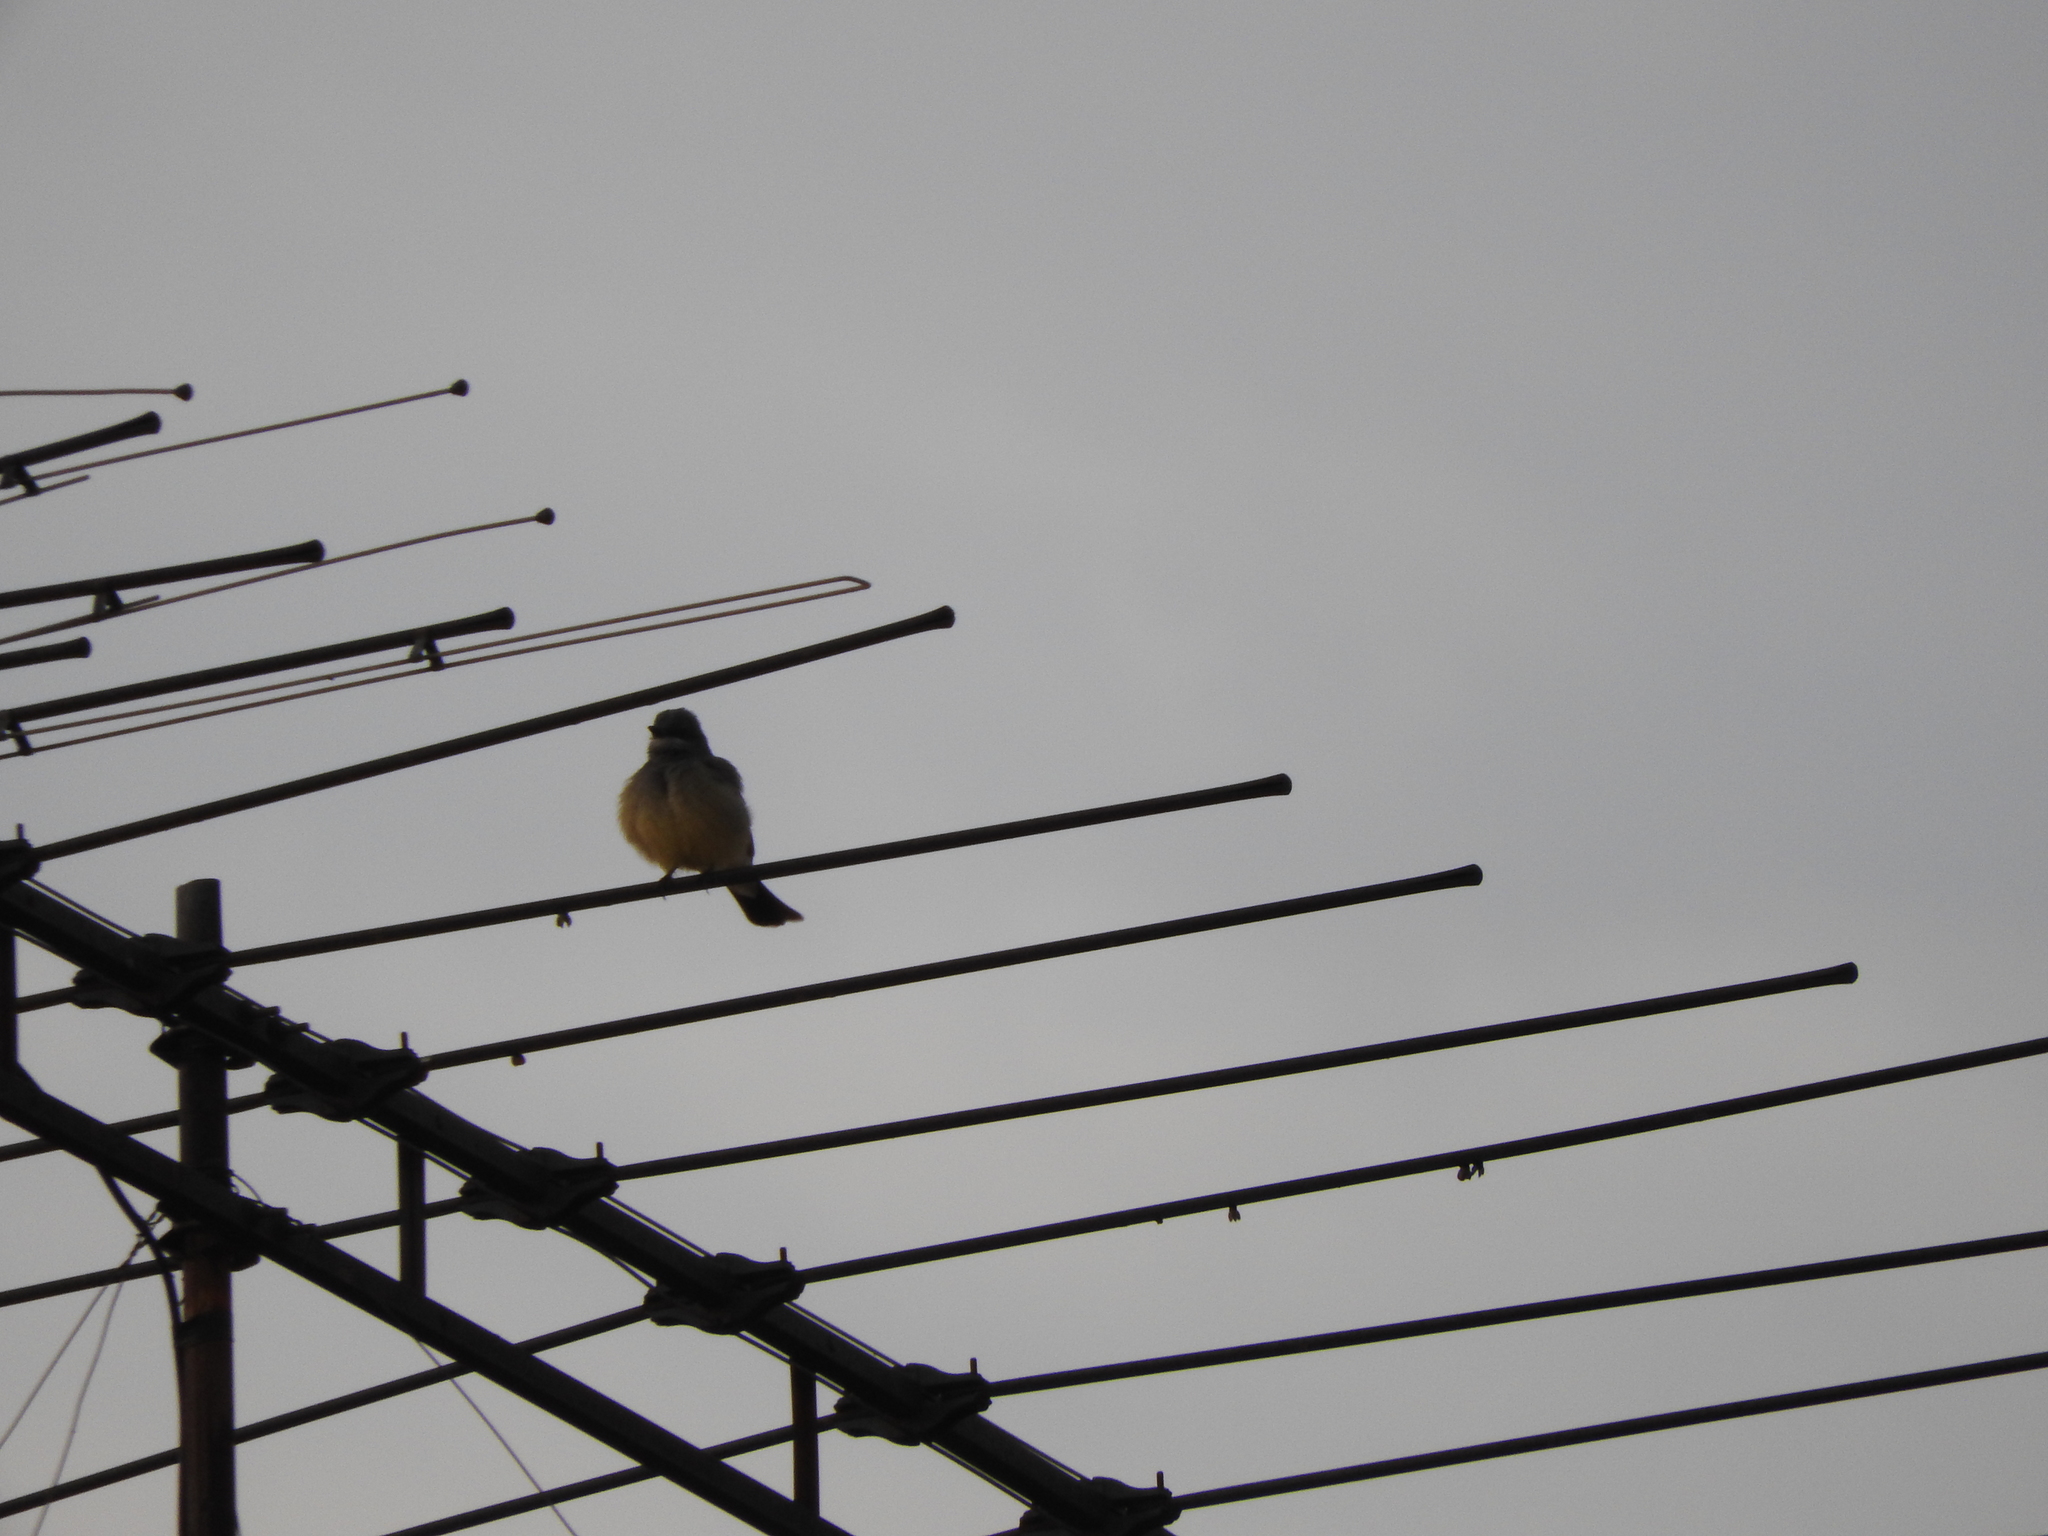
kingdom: Animalia
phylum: Chordata
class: Aves
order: Passeriformes
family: Tyrannidae
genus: Tyrannus
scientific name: Tyrannus vociferans
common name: Cassin's kingbird
